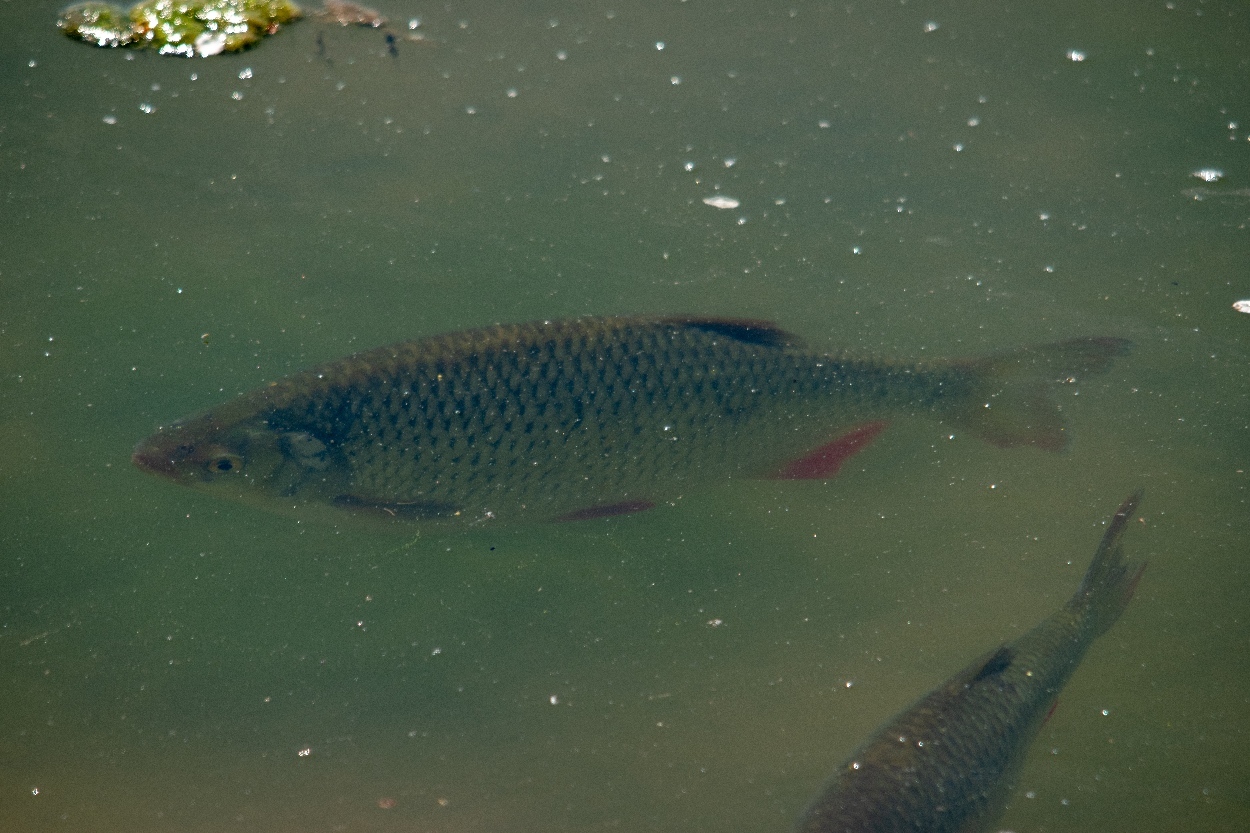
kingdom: Animalia
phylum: Chordata
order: Cypriniformes
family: Cyprinidae
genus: Scardinius
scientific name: Scardinius erythrophthalmus
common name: Rudd
